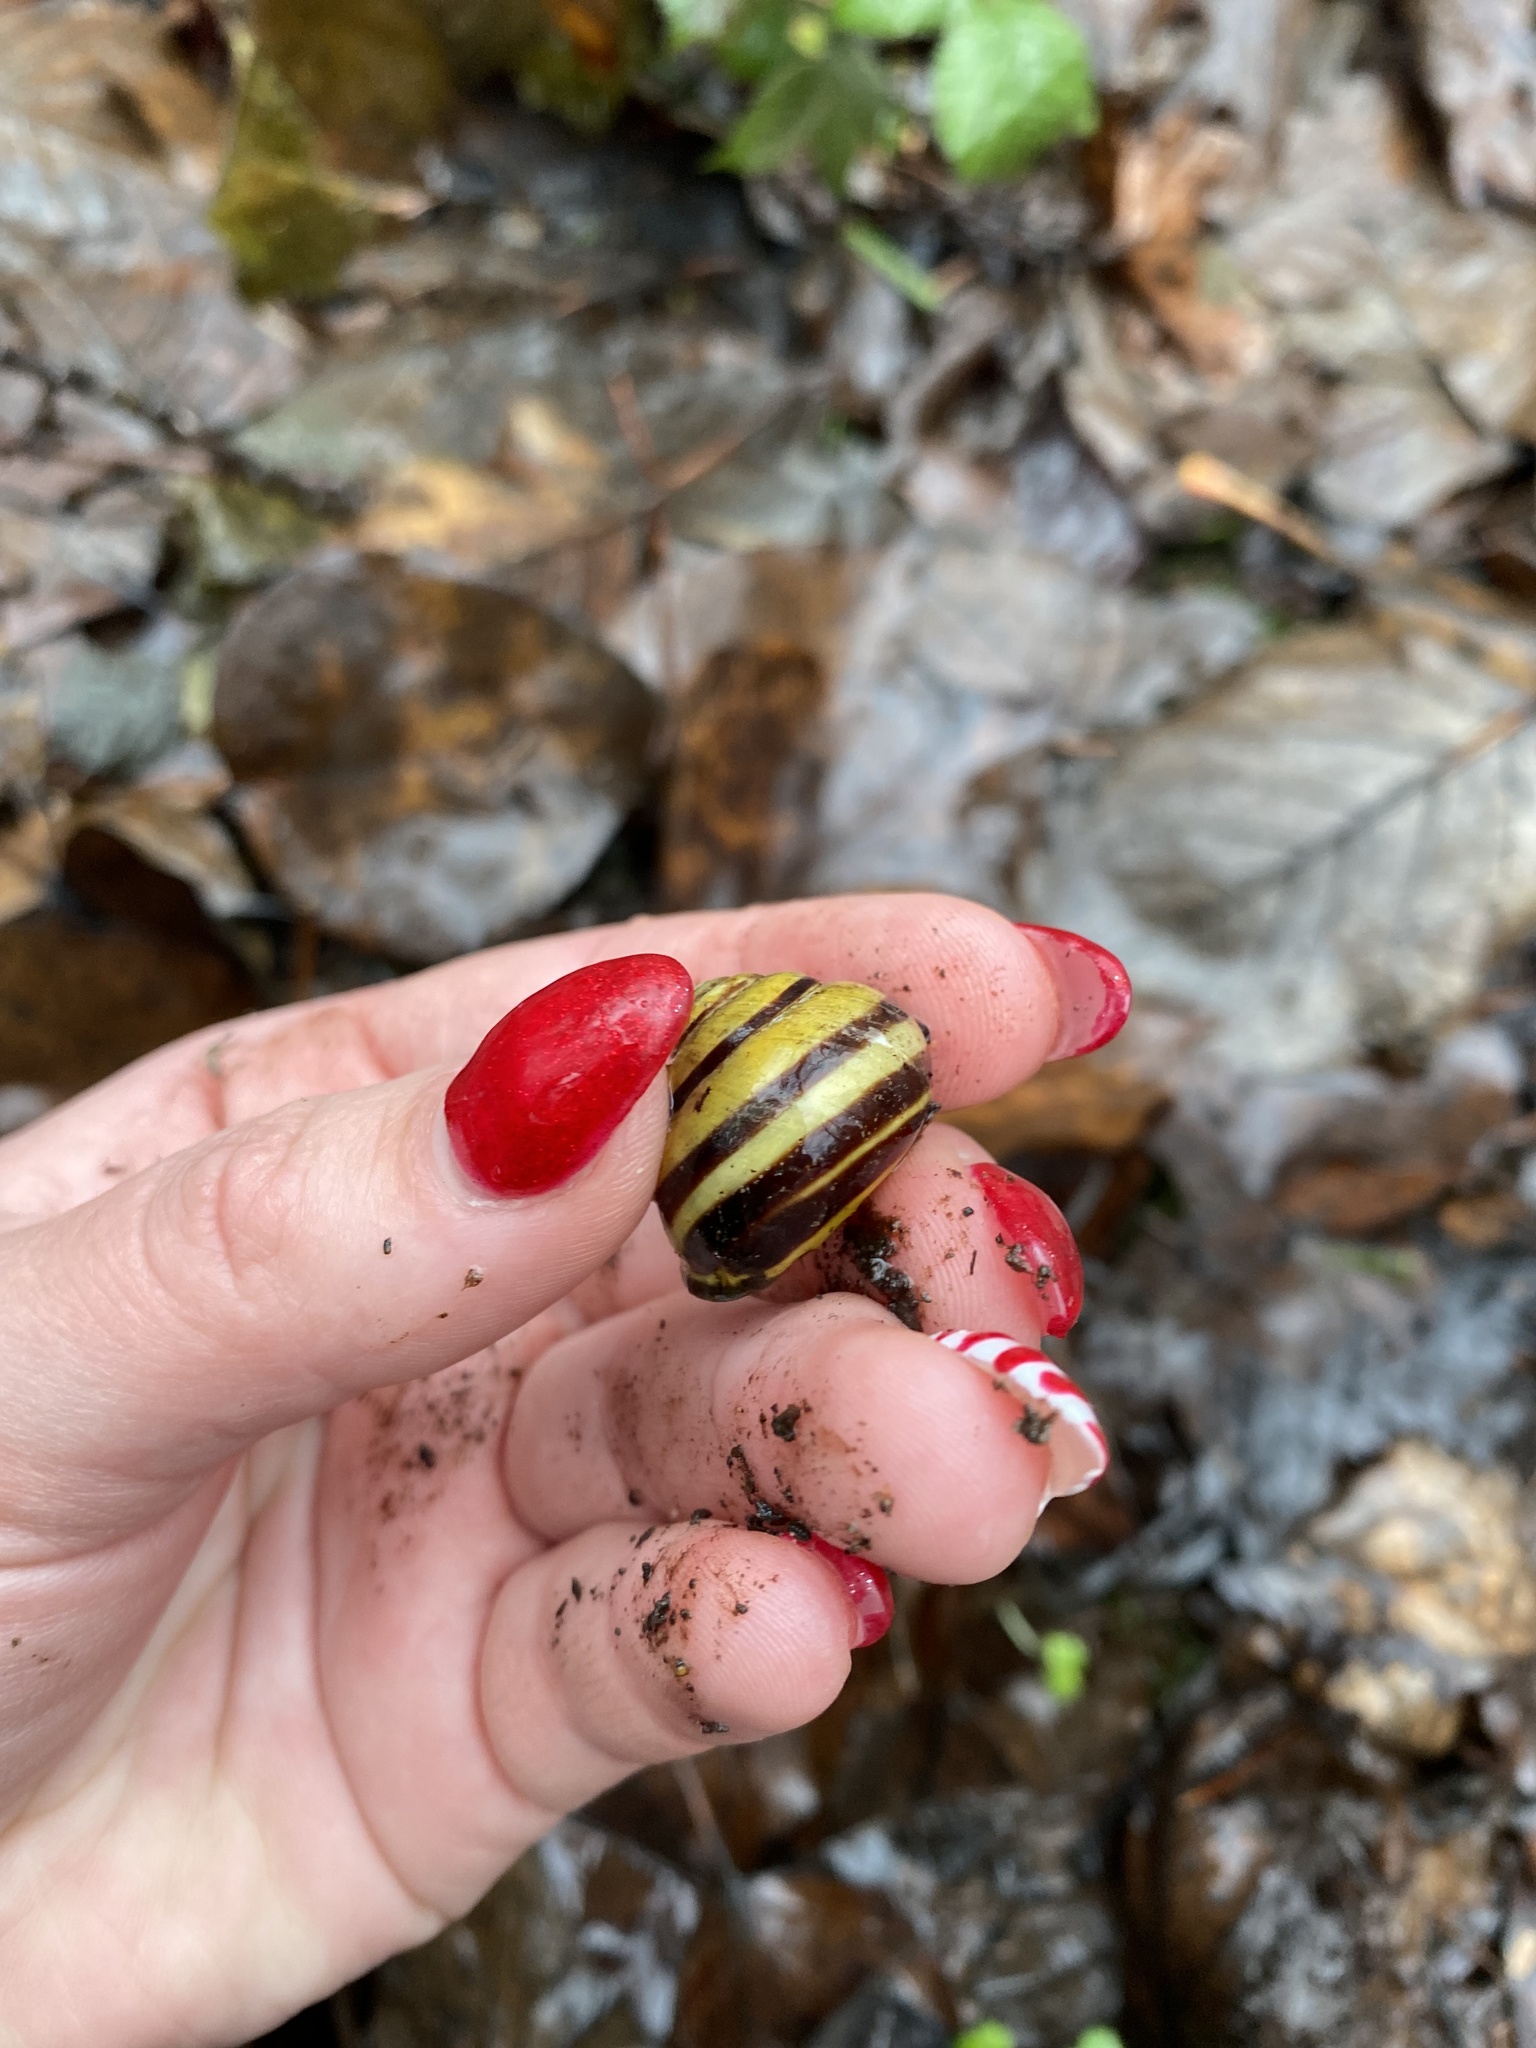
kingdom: Animalia
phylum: Mollusca
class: Gastropoda
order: Stylommatophora
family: Helicidae
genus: Cepaea
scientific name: Cepaea nemoralis
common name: Grovesnail
